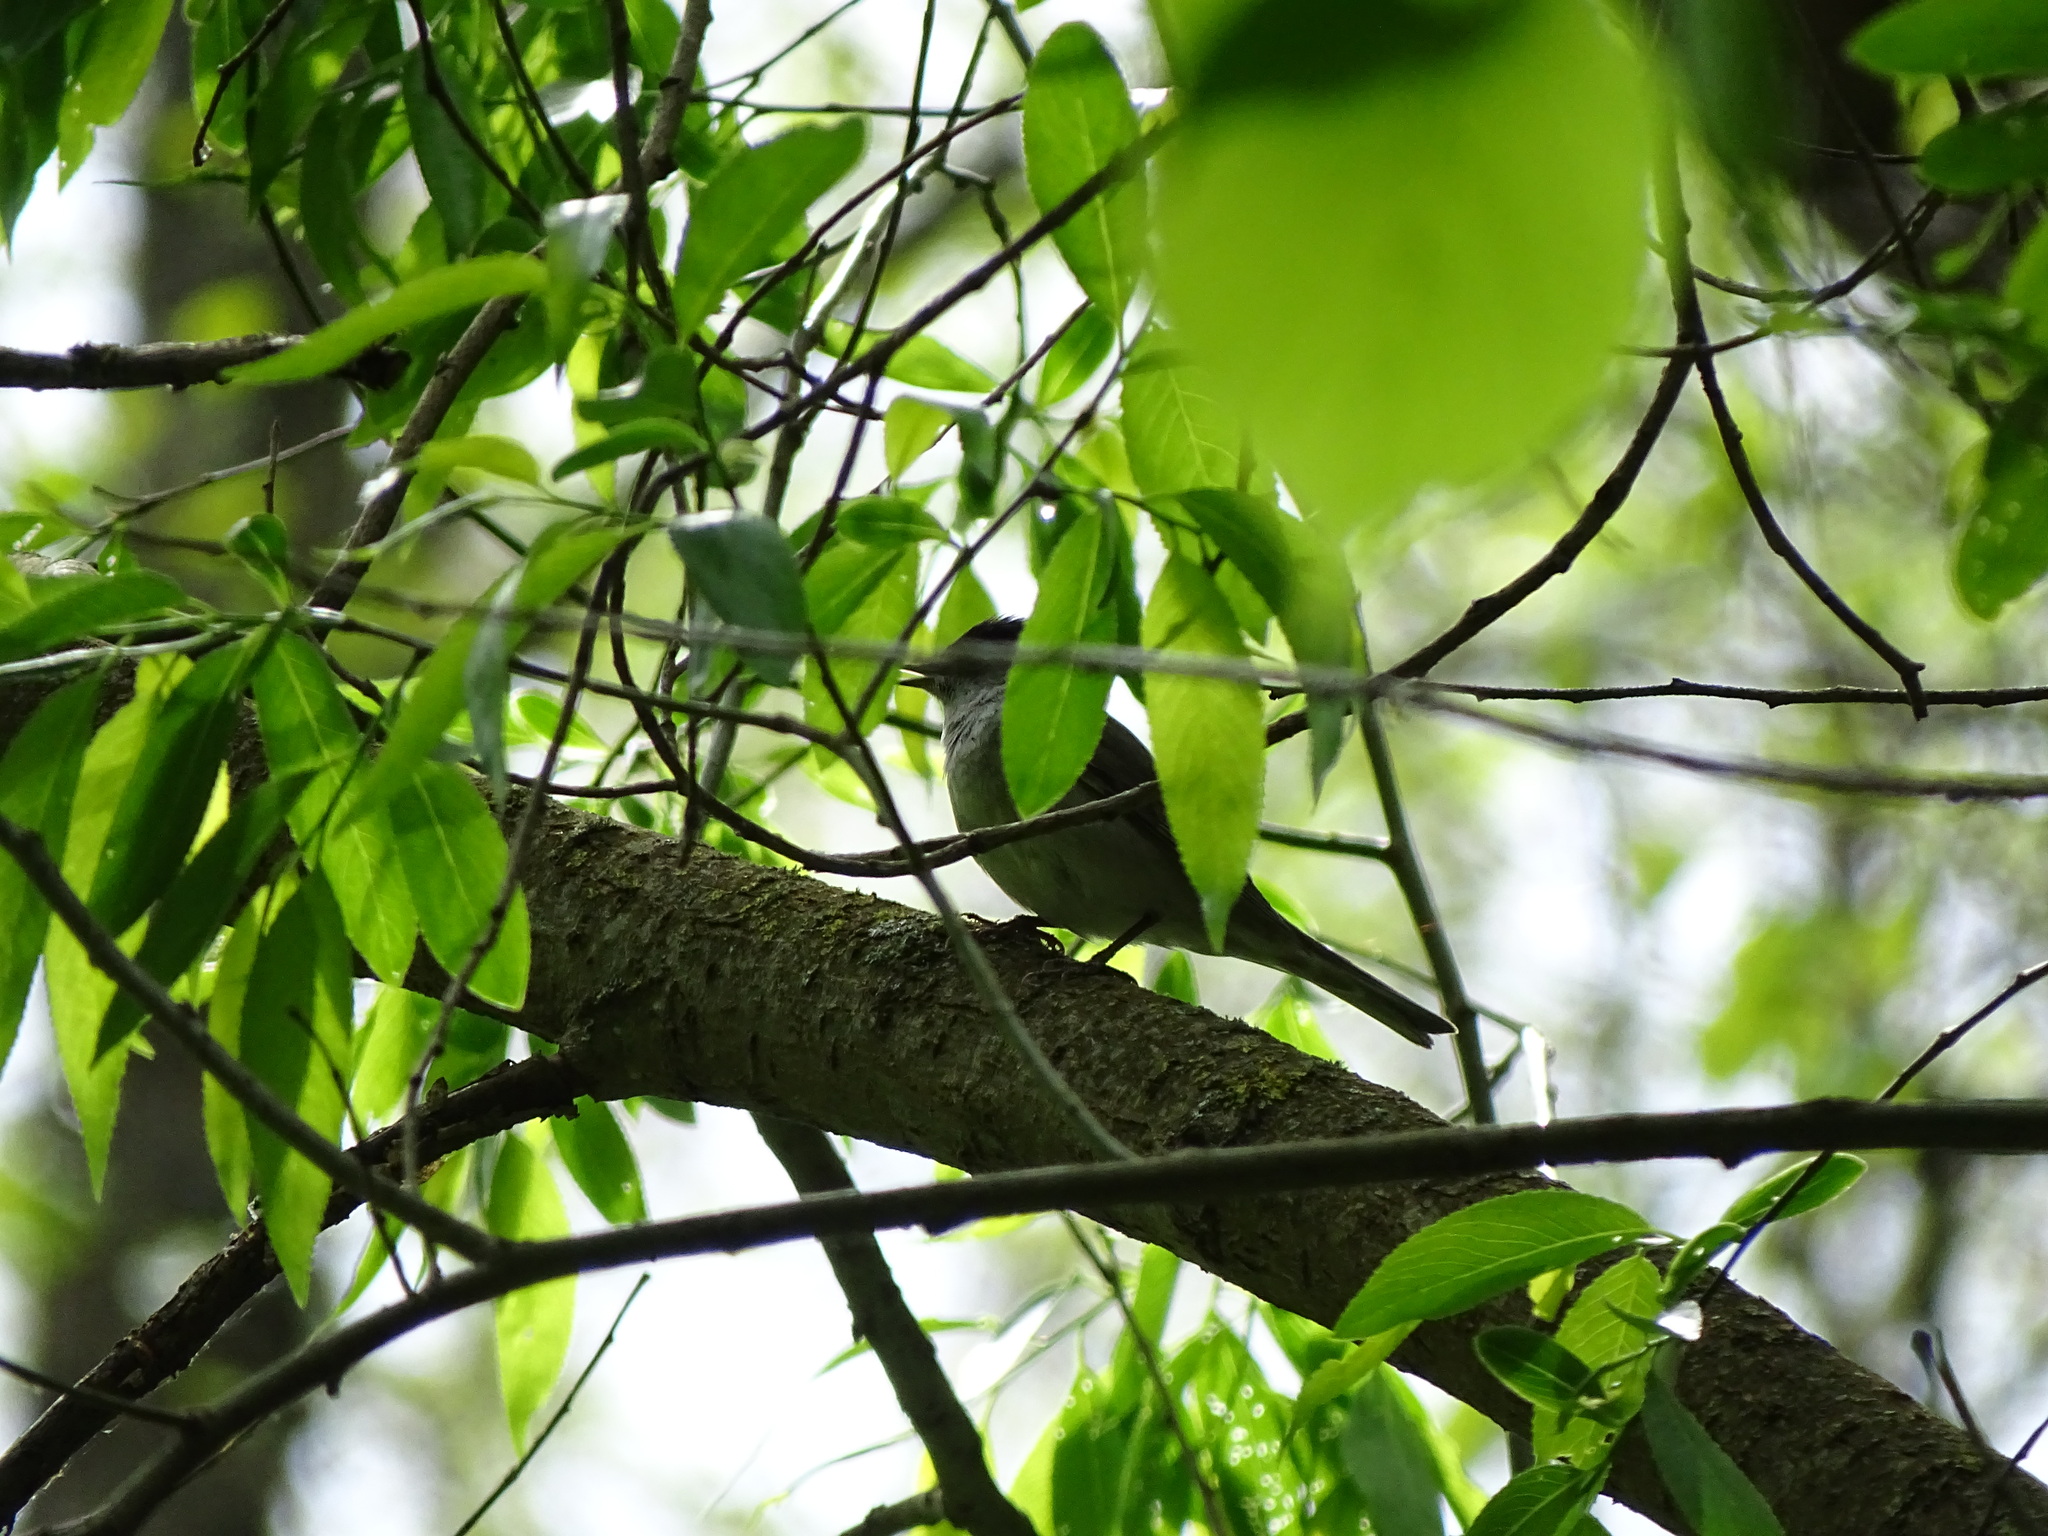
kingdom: Animalia
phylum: Chordata
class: Aves
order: Passeriformes
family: Sylviidae
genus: Sylvia
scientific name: Sylvia atricapilla
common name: Eurasian blackcap
